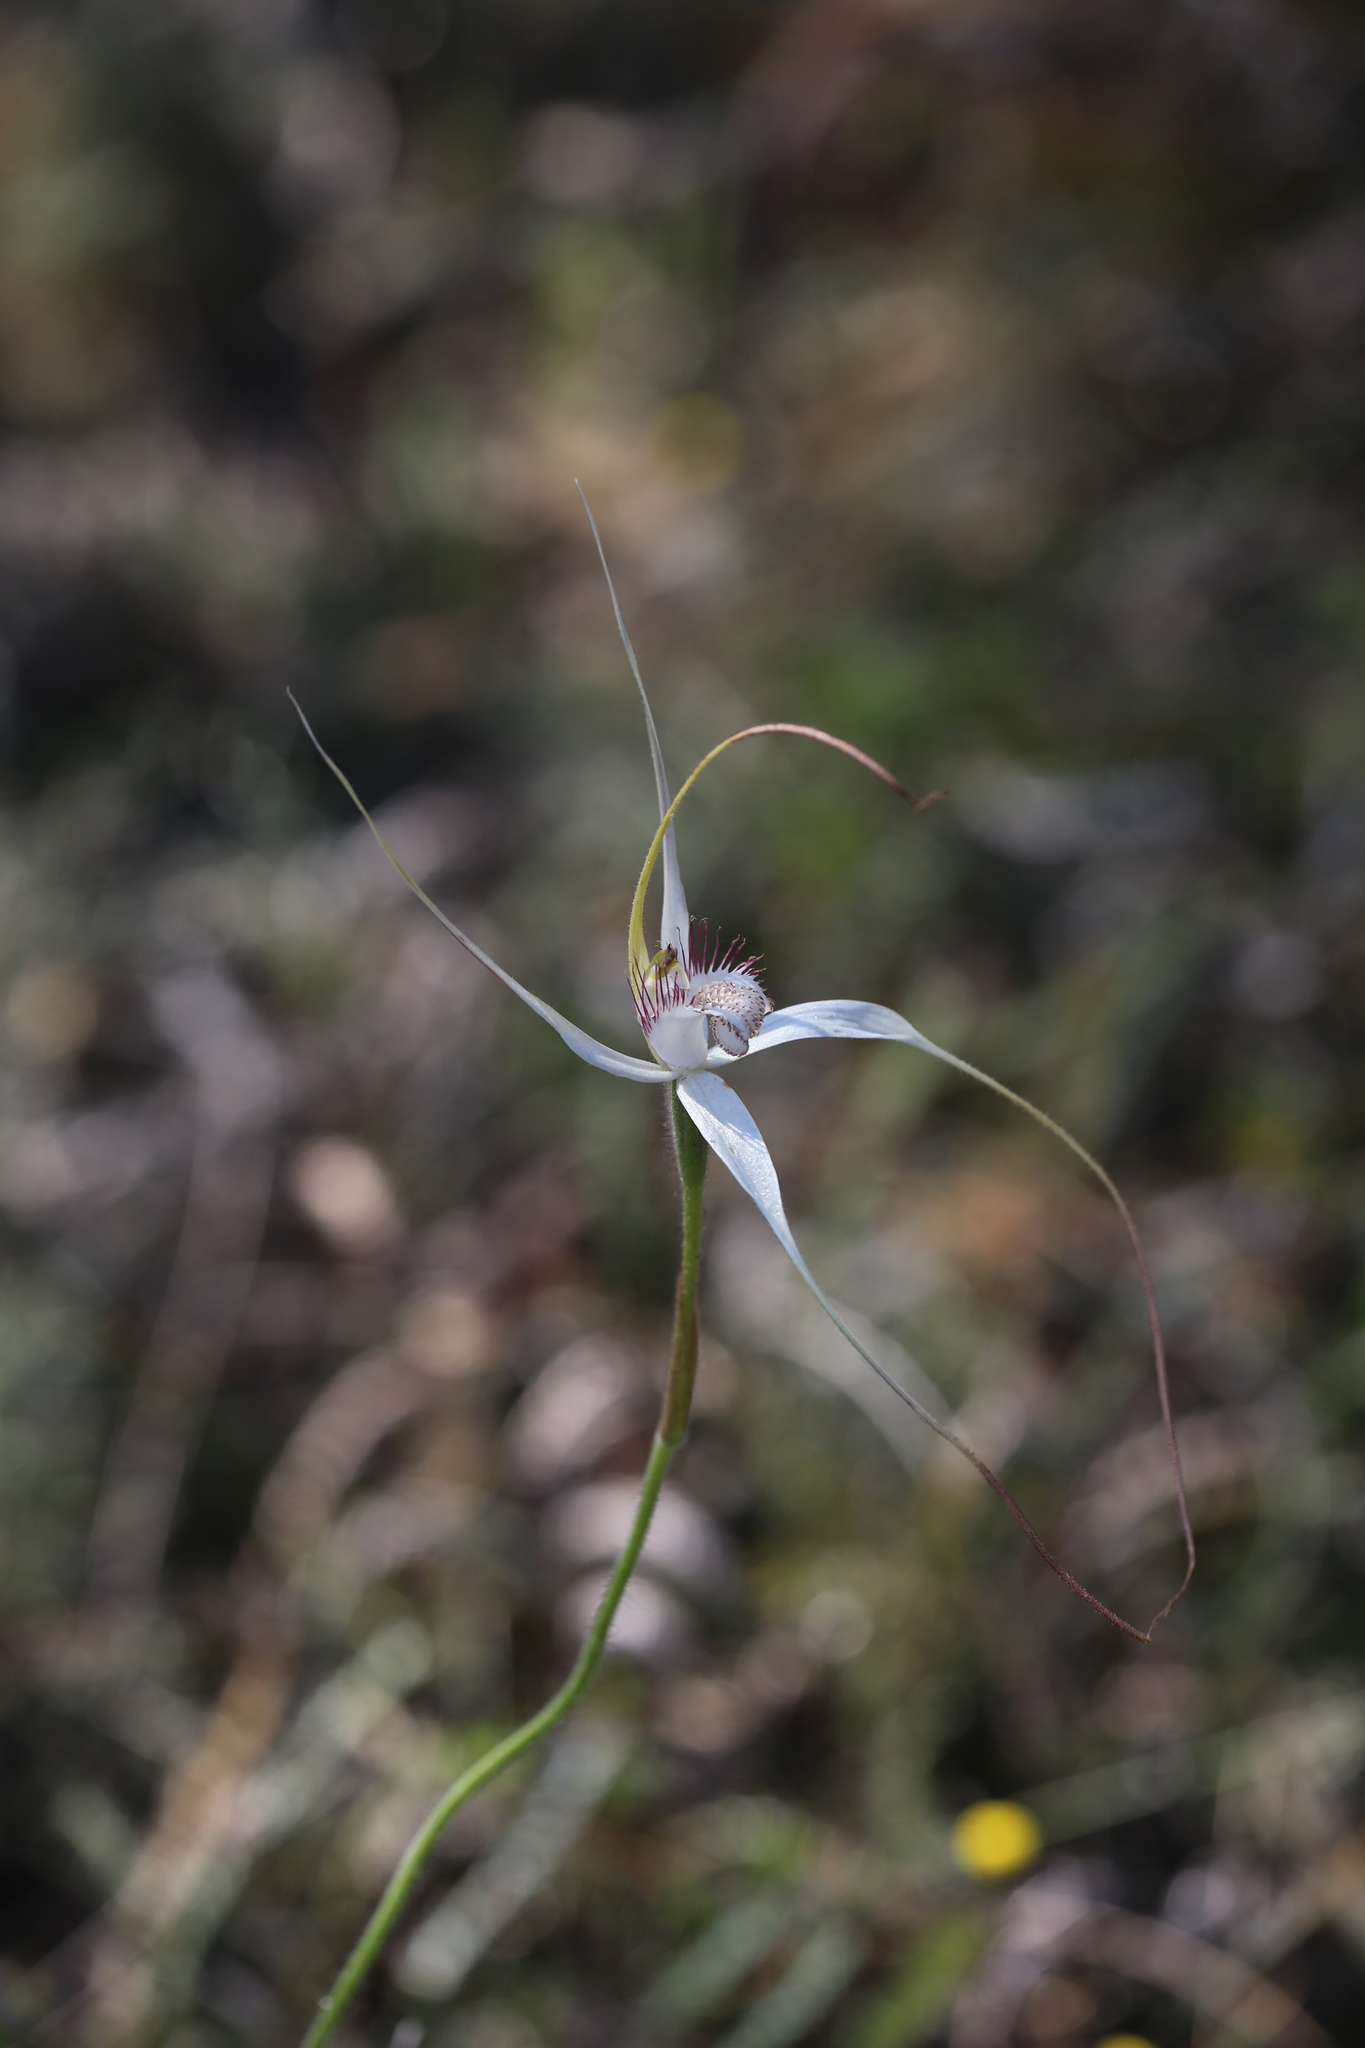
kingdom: Plantae
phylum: Tracheophyta
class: Liliopsida
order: Asparagales
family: Orchidaceae
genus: Caladenia
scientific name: Caladenia longicauda
